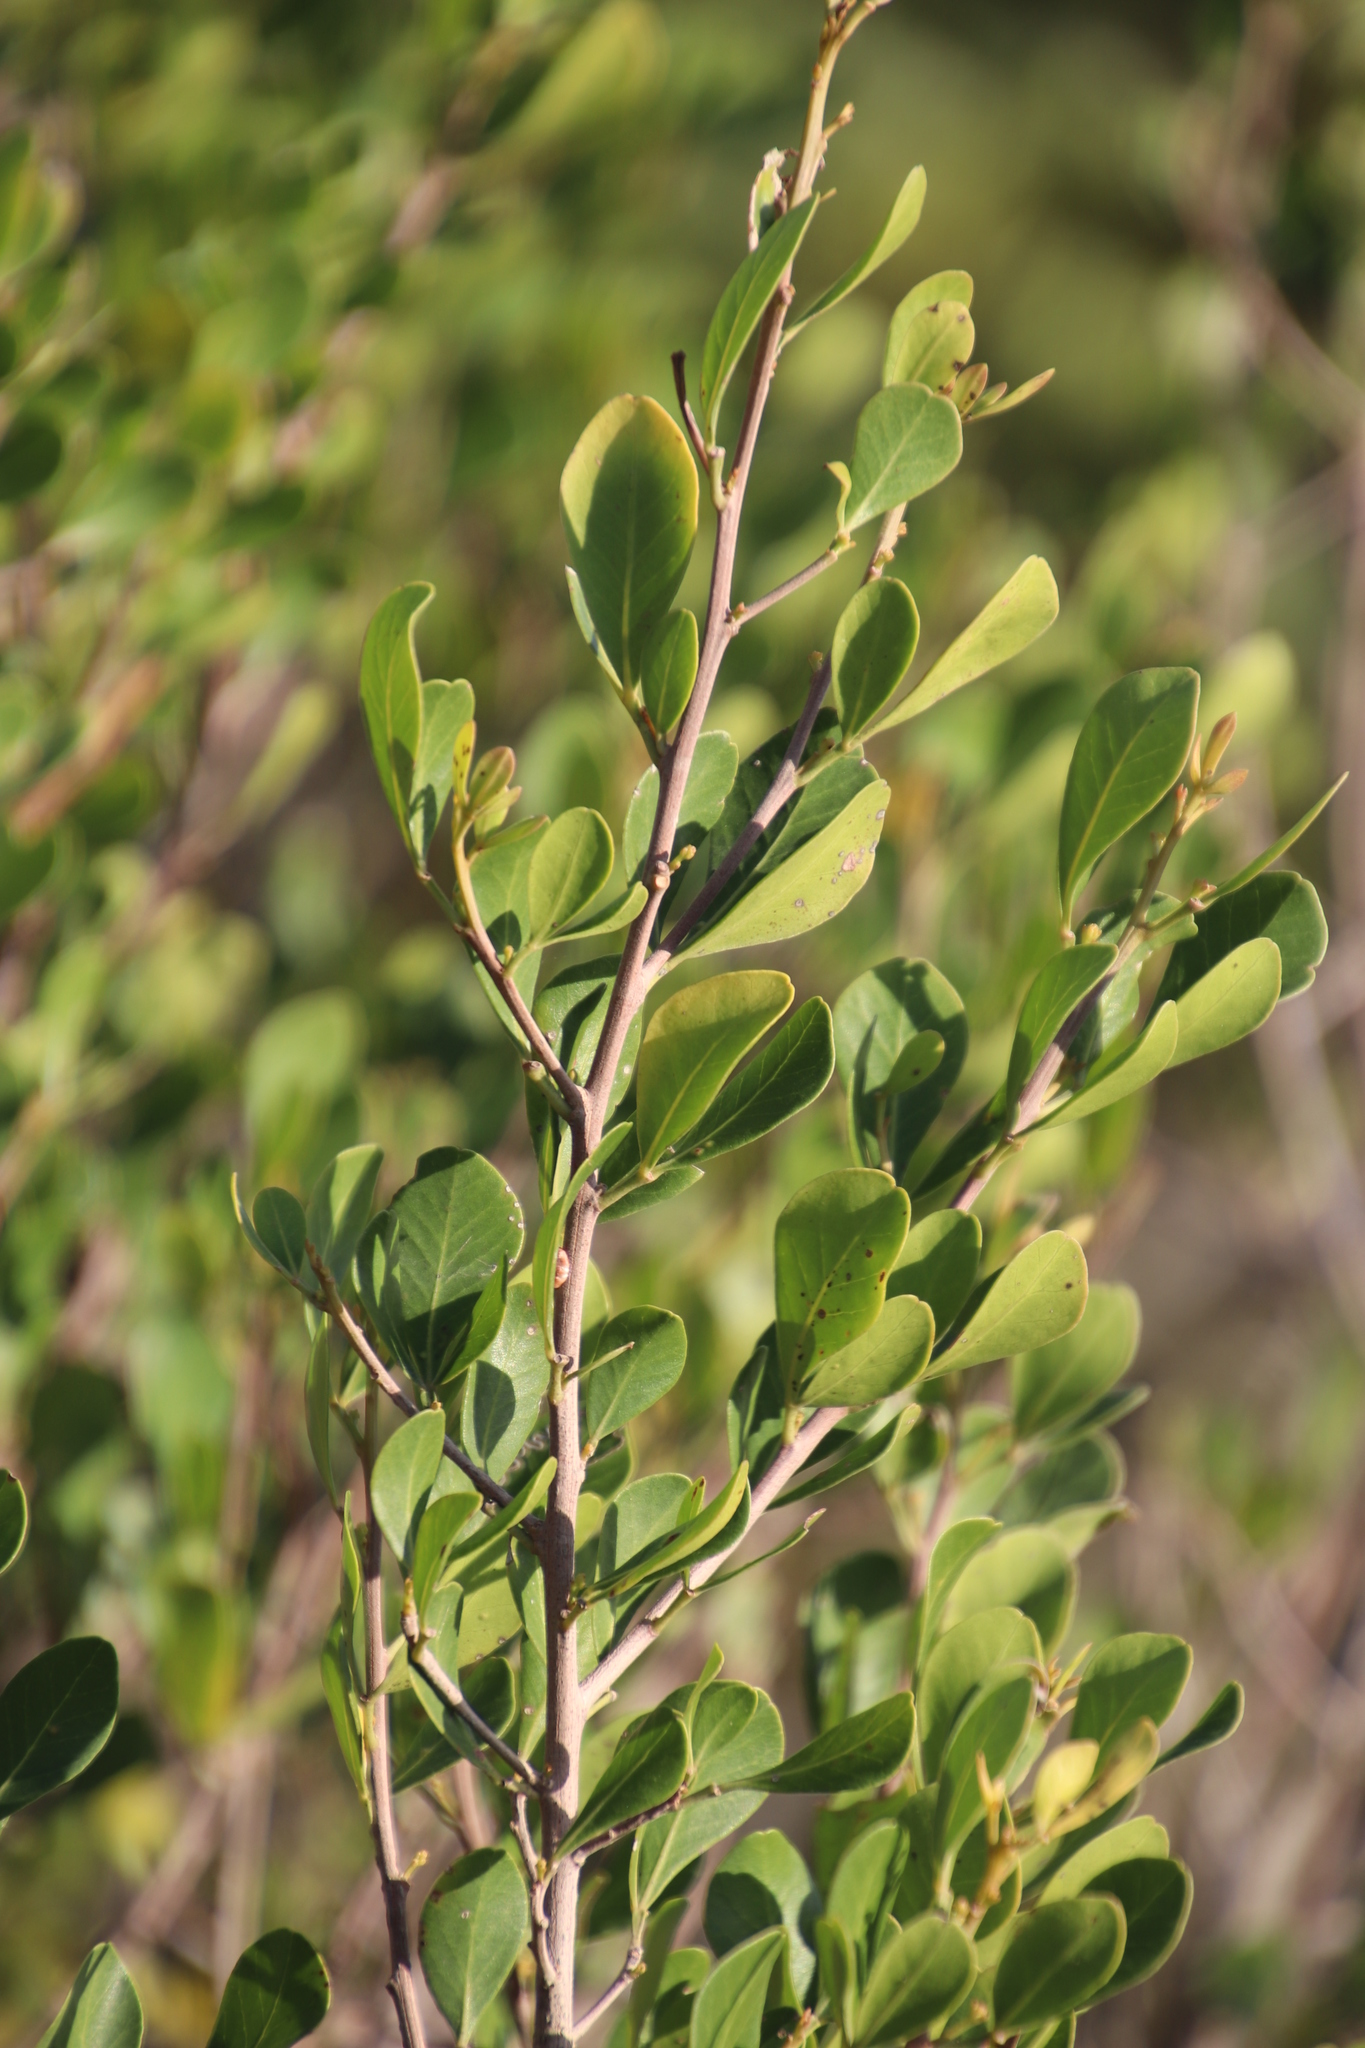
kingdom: Plantae
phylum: Tracheophyta
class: Magnoliopsida
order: Sapindales
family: Anacardiaceae
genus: Searsia
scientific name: Searsia lucida
